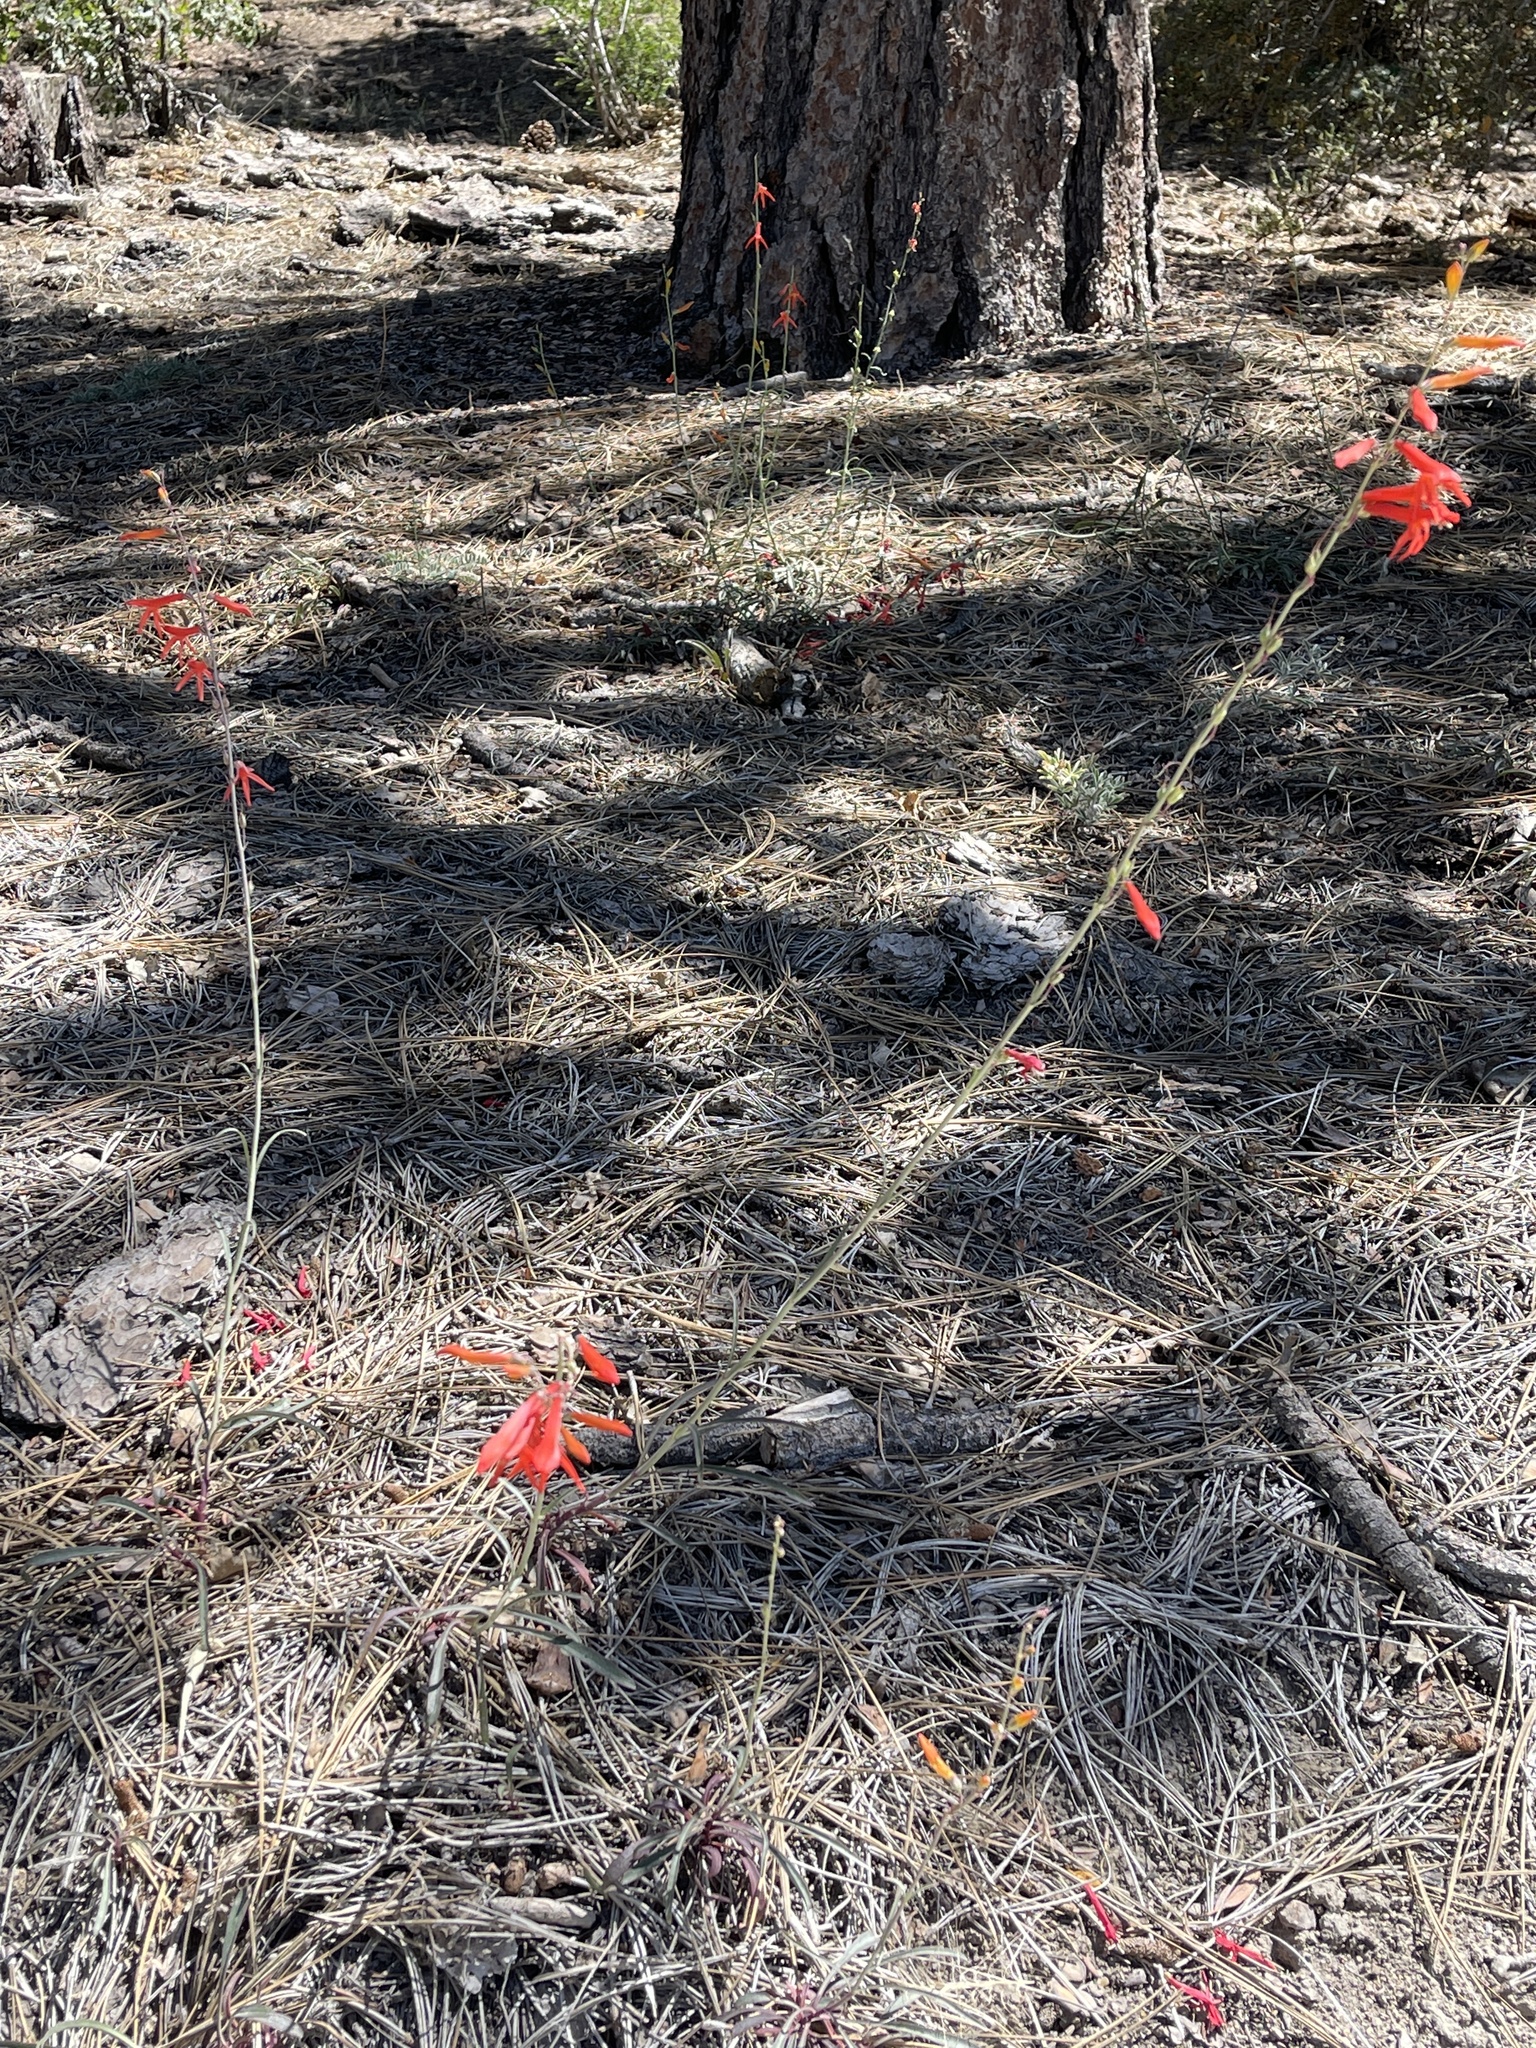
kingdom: Plantae
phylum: Tracheophyta
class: Magnoliopsida
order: Lamiales
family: Plantaginaceae
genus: Penstemon
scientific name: Penstemon labrosus
